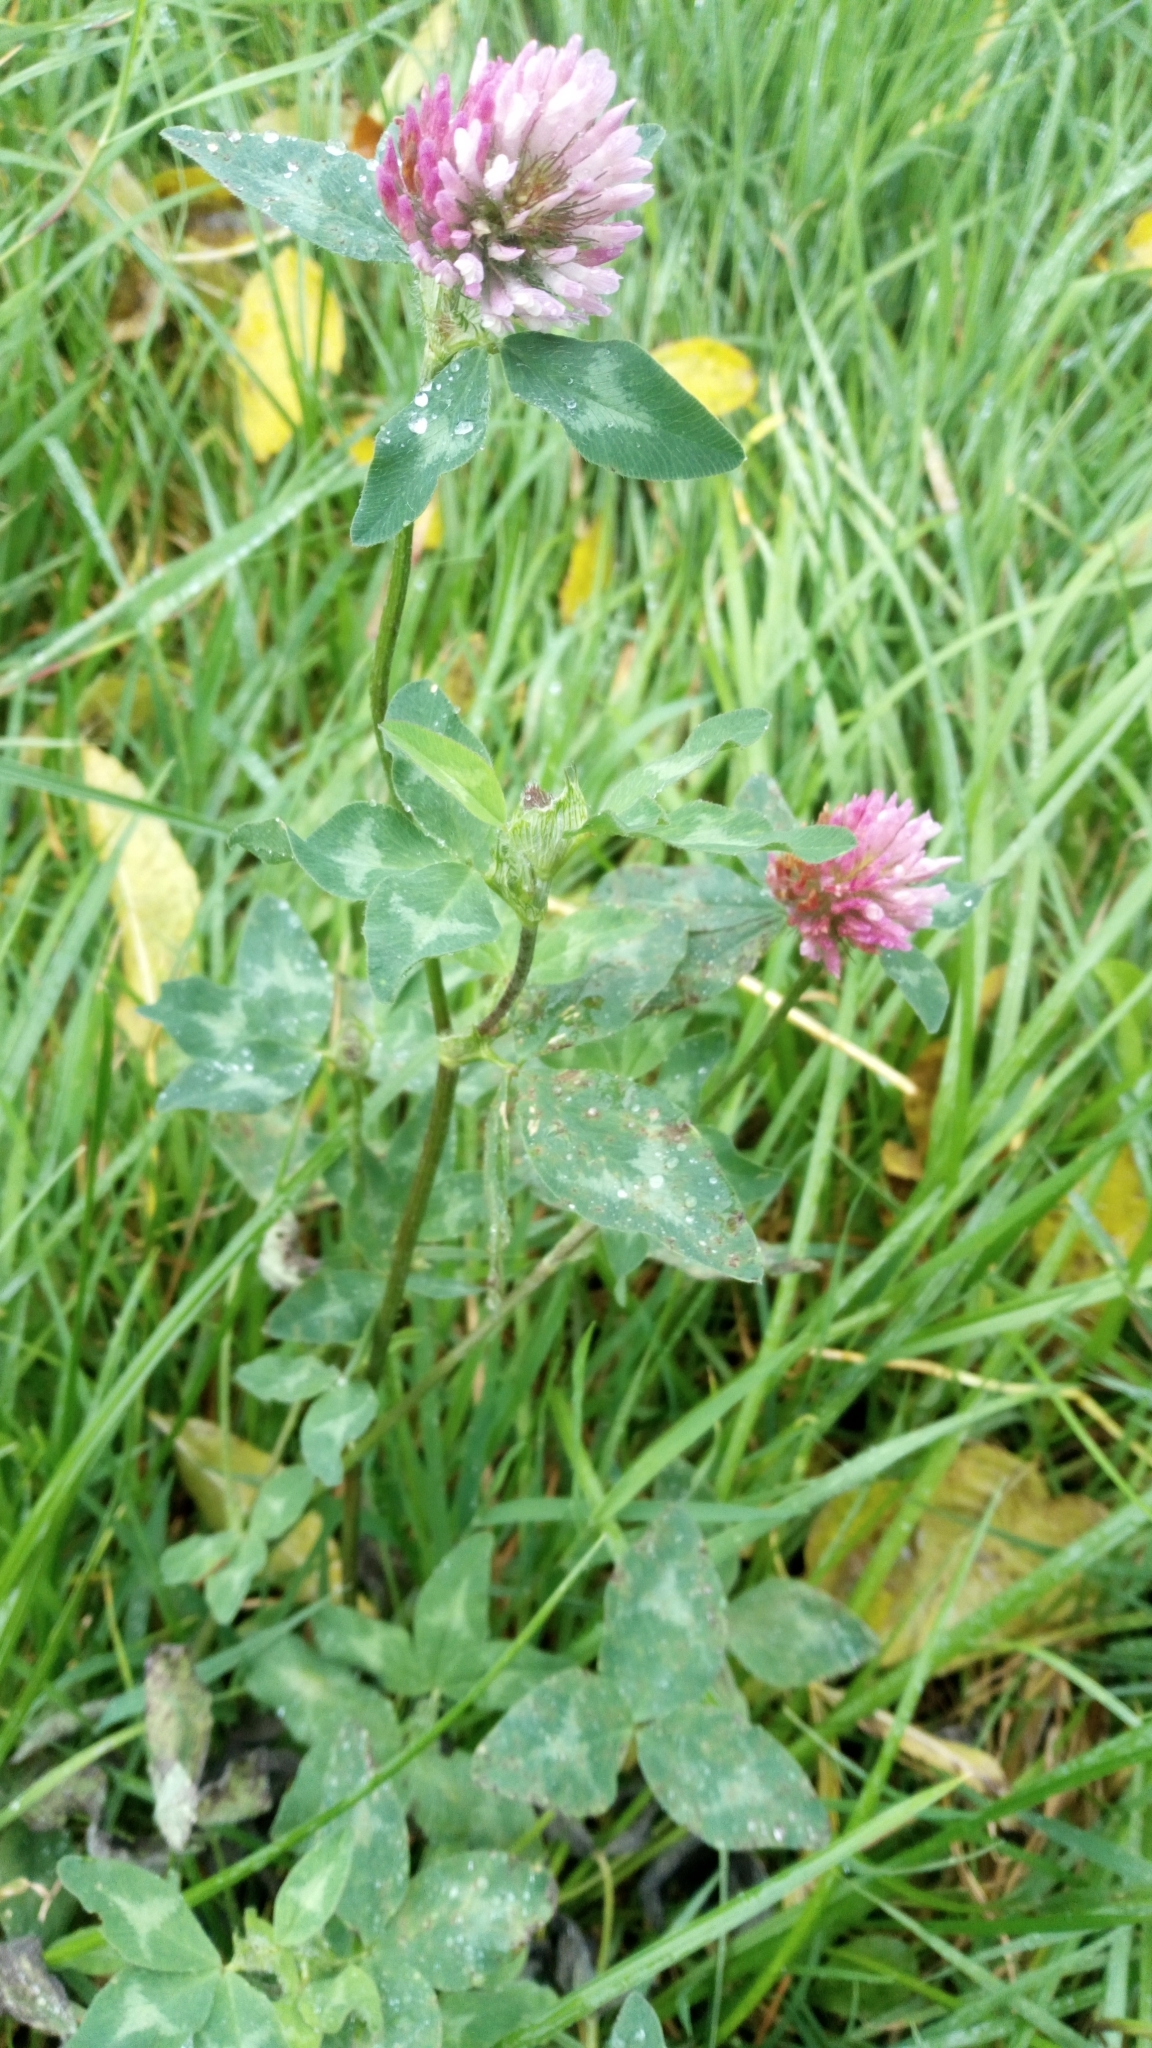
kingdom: Plantae
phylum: Tracheophyta
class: Magnoliopsida
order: Fabales
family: Fabaceae
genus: Trifolium
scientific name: Trifolium pratense
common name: Red clover
